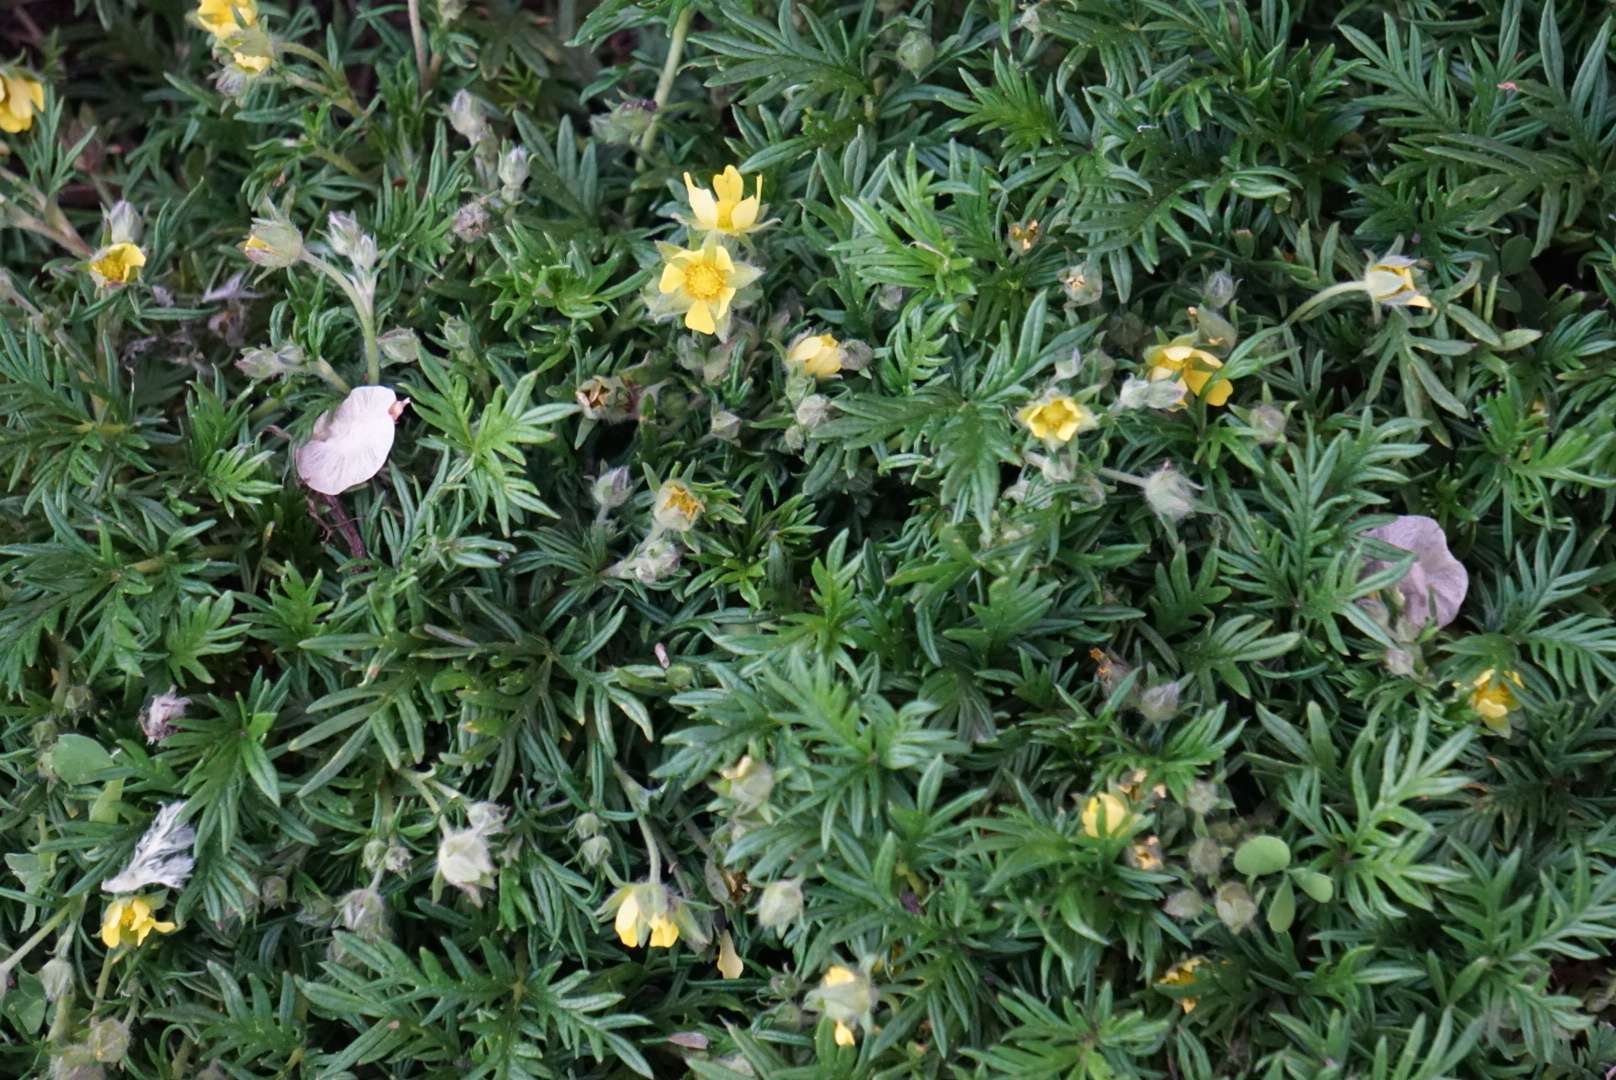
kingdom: Plantae
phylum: Tracheophyta
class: Magnoliopsida
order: Rosales
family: Rosaceae
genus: Dasiphora
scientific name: Dasiphora fruticosa
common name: Shrubby cinquefoil
